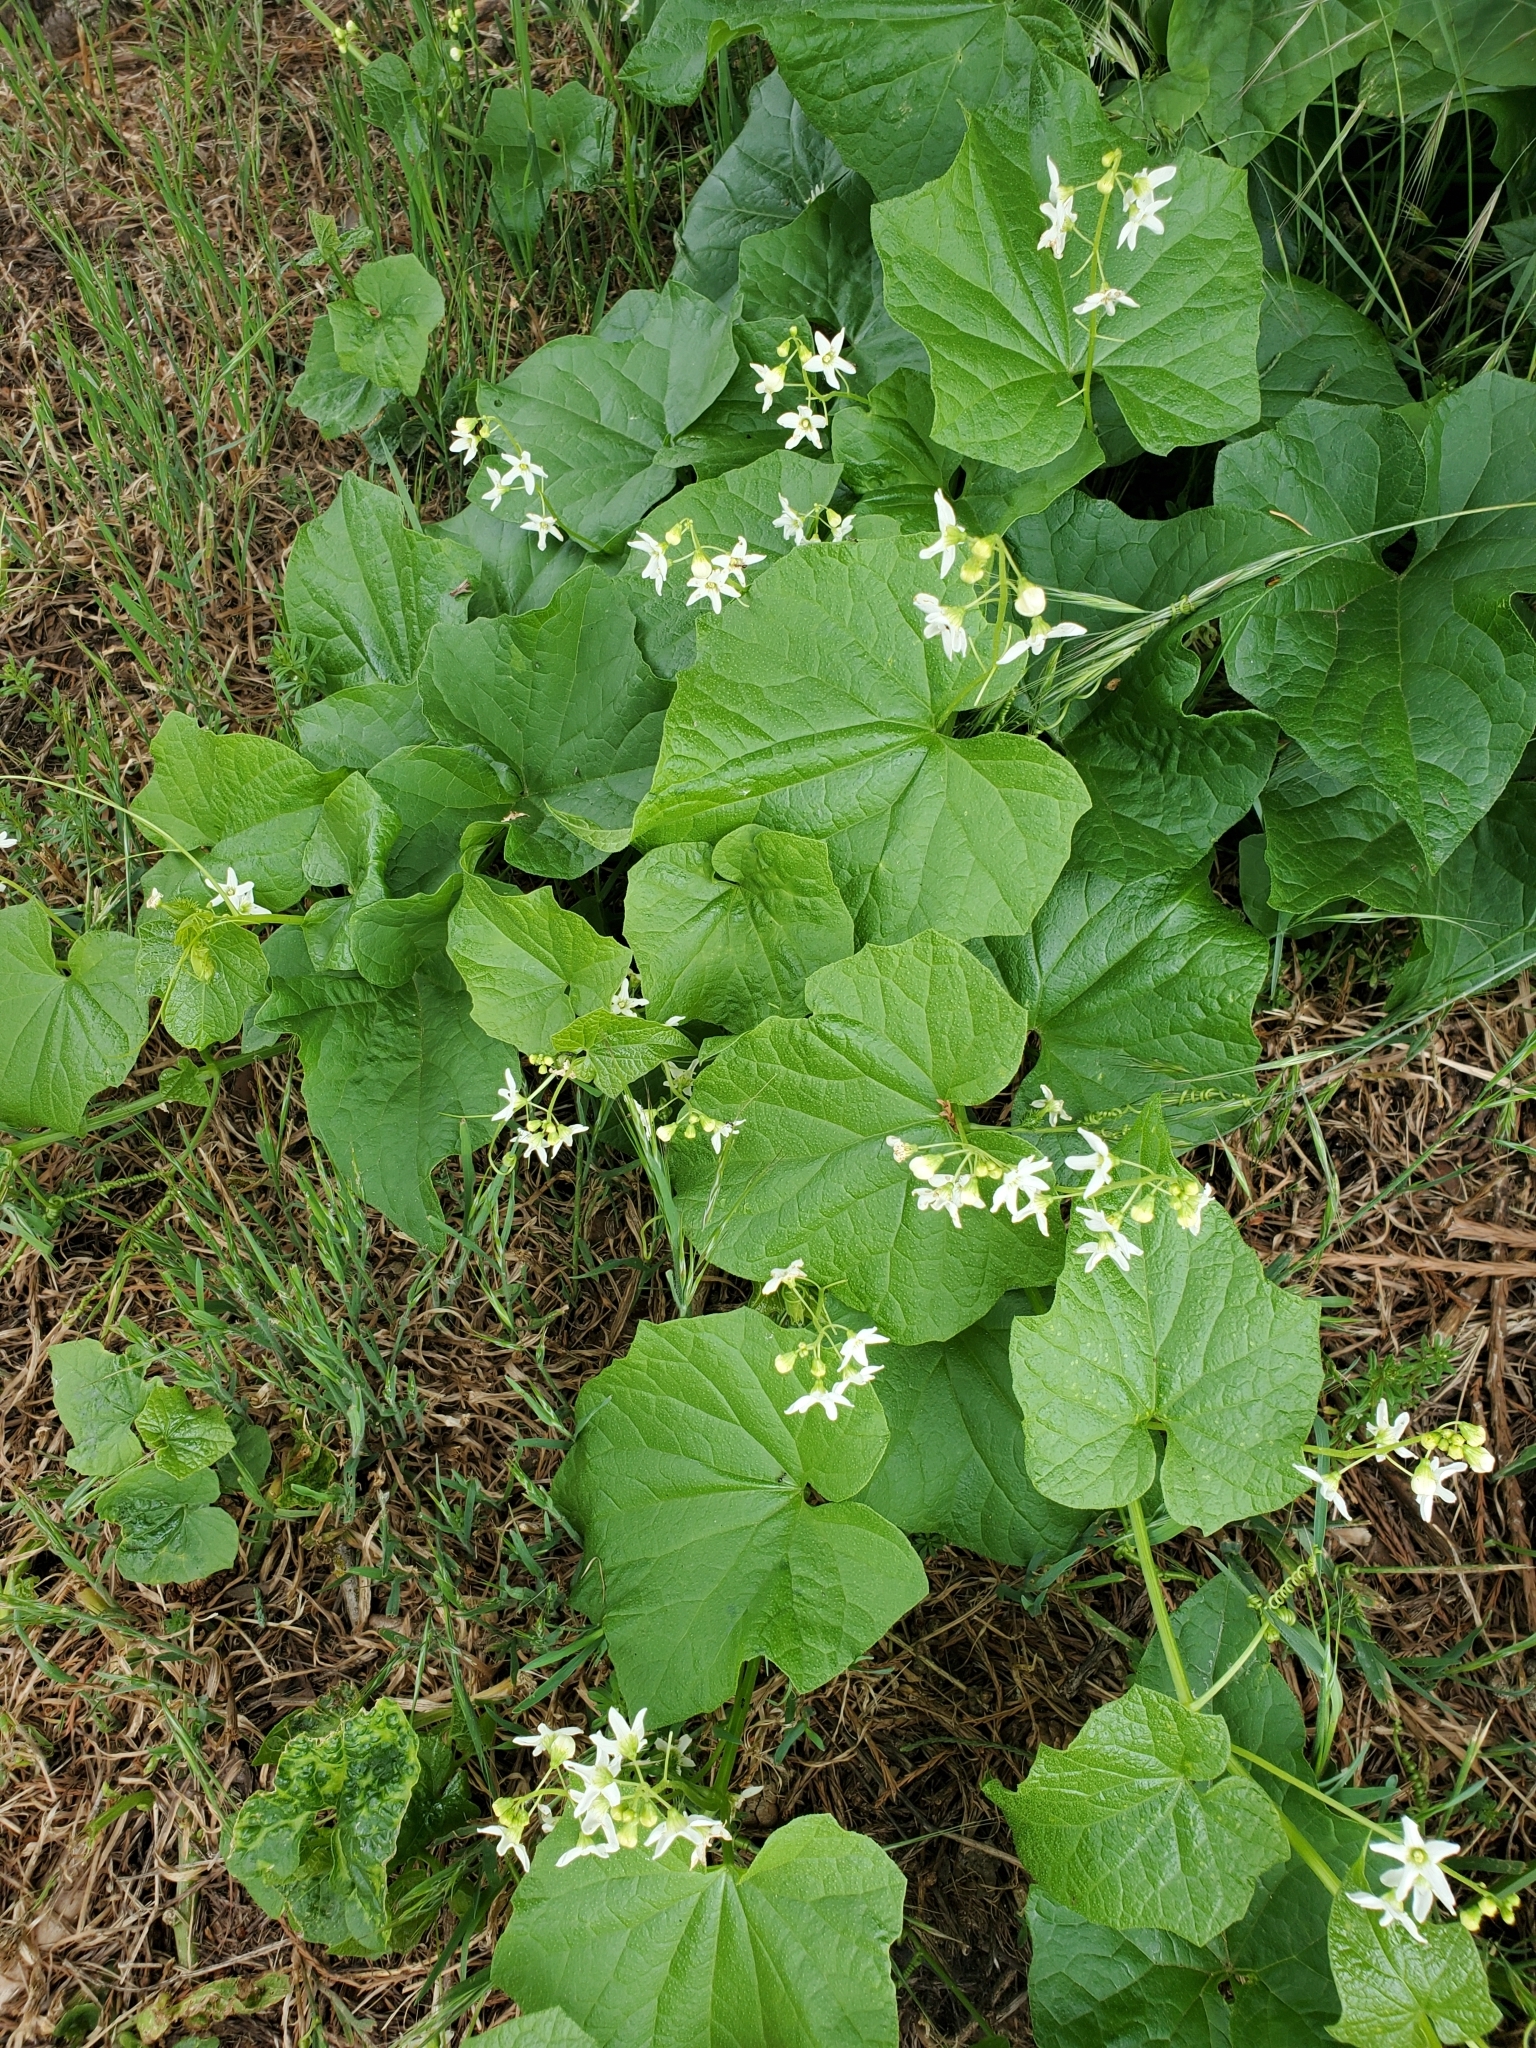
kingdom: Plantae
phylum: Tracheophyta
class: Magnoliopsida
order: Cucurbitales
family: Cucurbitaceae
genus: Marah
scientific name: Marah oregana
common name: Coastal manroot
